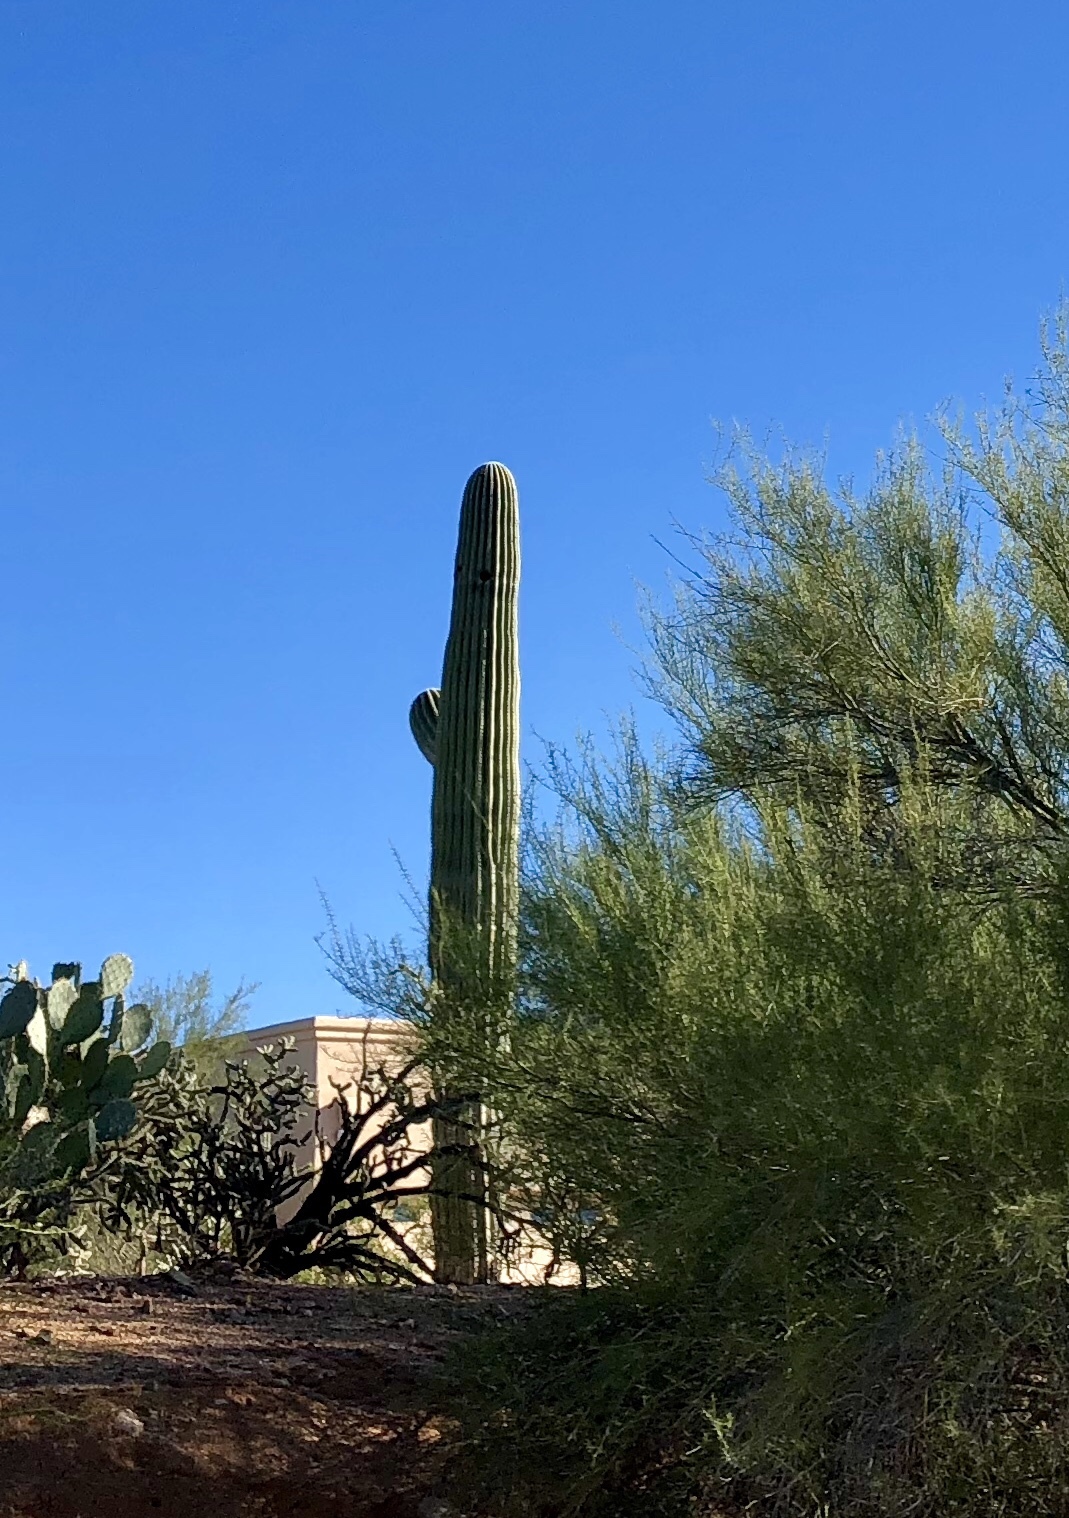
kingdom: Plantae
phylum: Tracheophyta
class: Magnoliopsida
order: Caryophyllales
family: Cactaceae
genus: Carnegiea
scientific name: Carnegiea gigantea
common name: Saguaro
